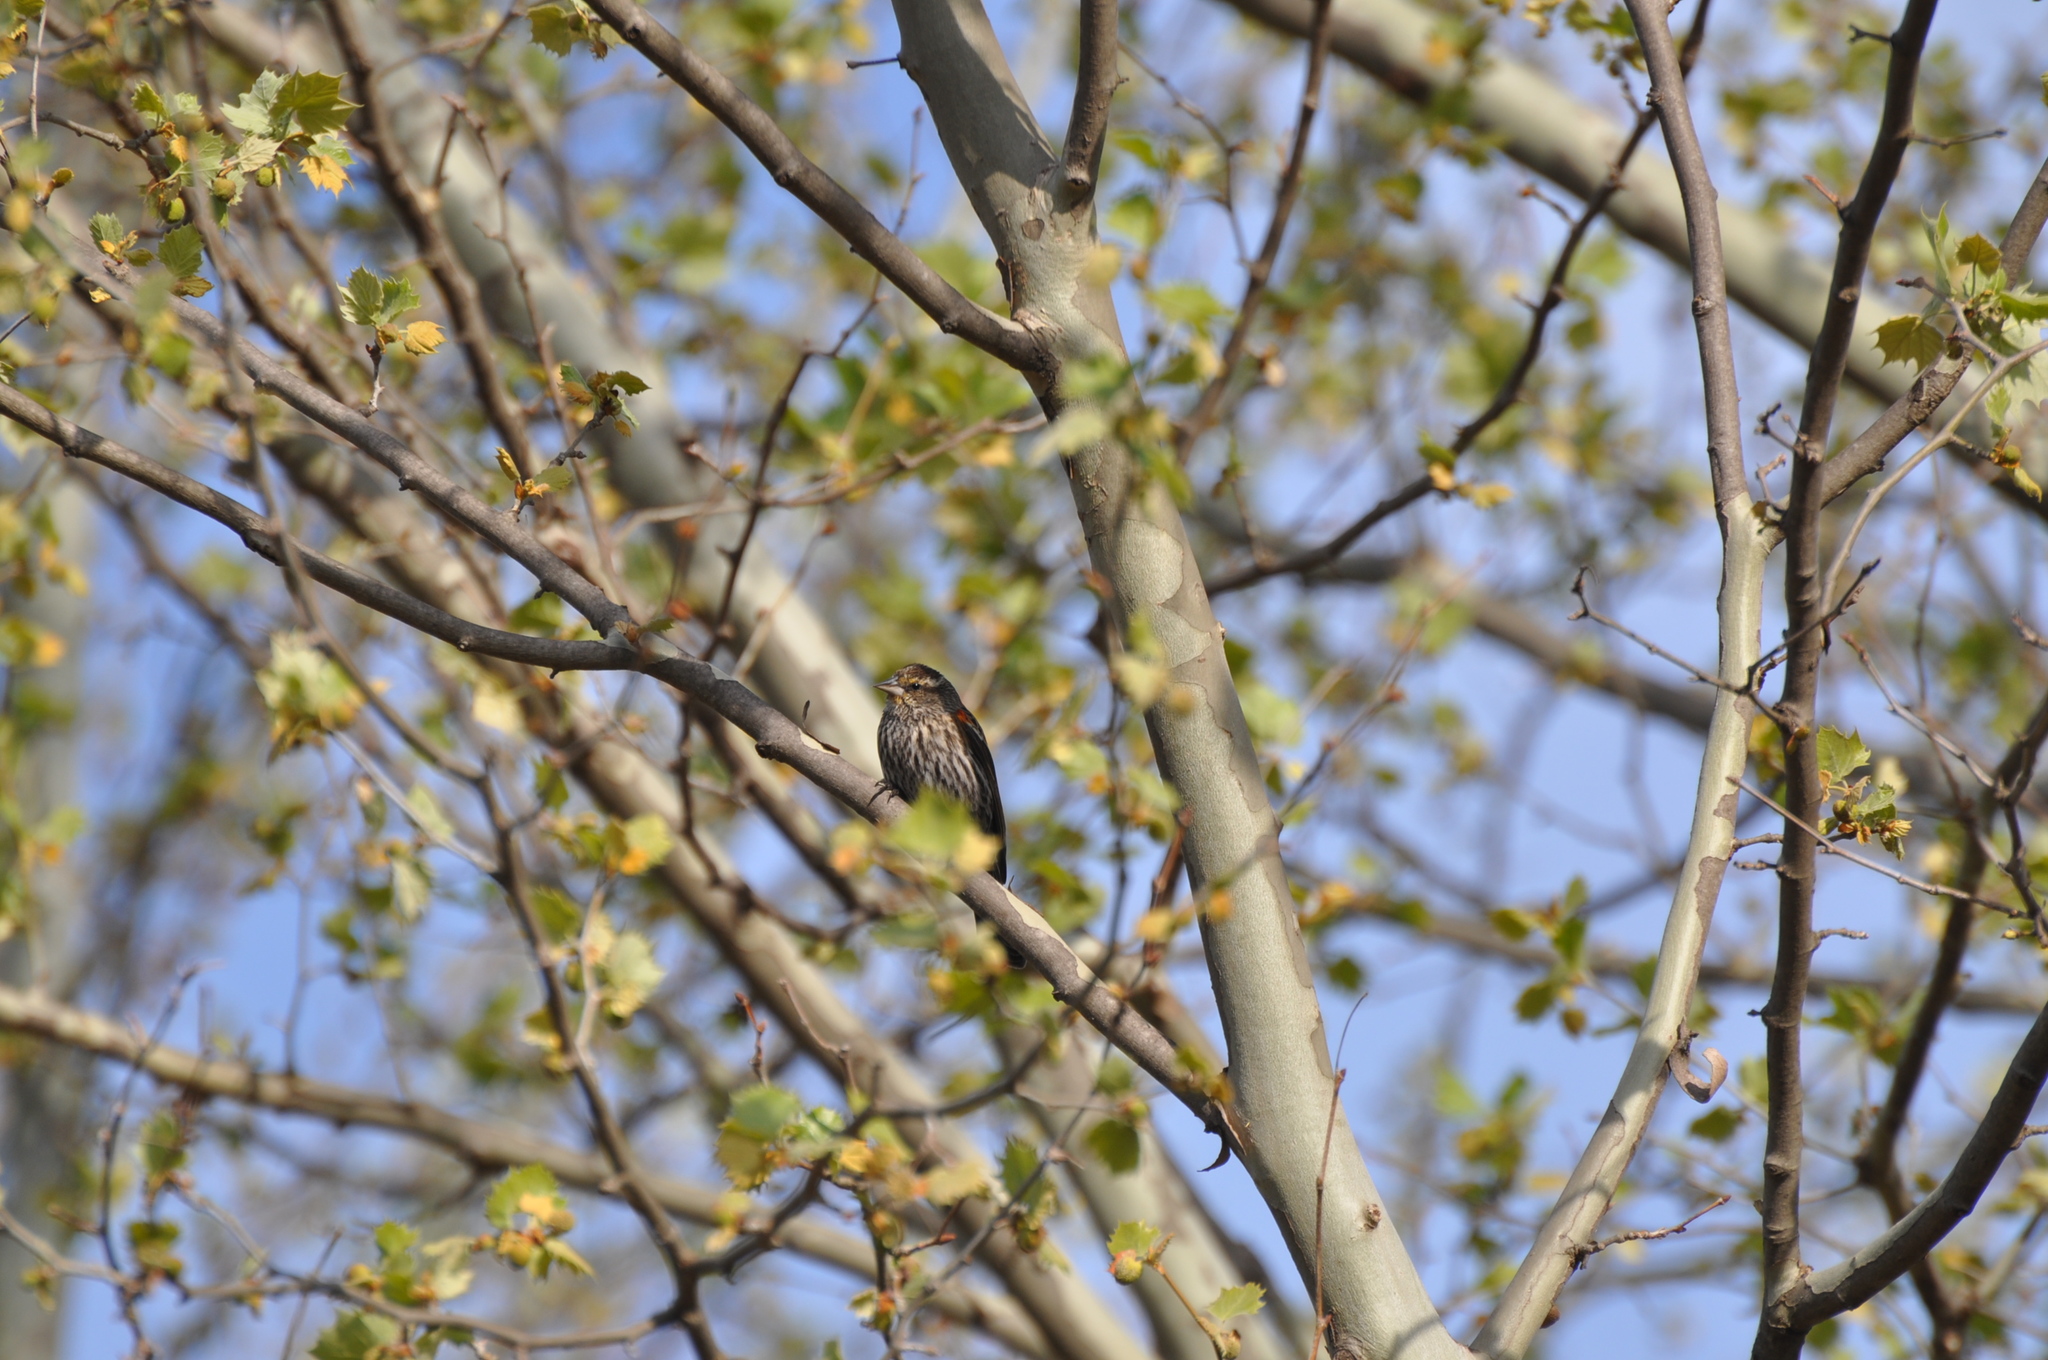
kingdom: Animalia
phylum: Chordata
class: Aves
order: Passeriformes
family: Icteridae
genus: Agelaius
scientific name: Agelaius phoeniceus
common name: Red-winged blackbird
